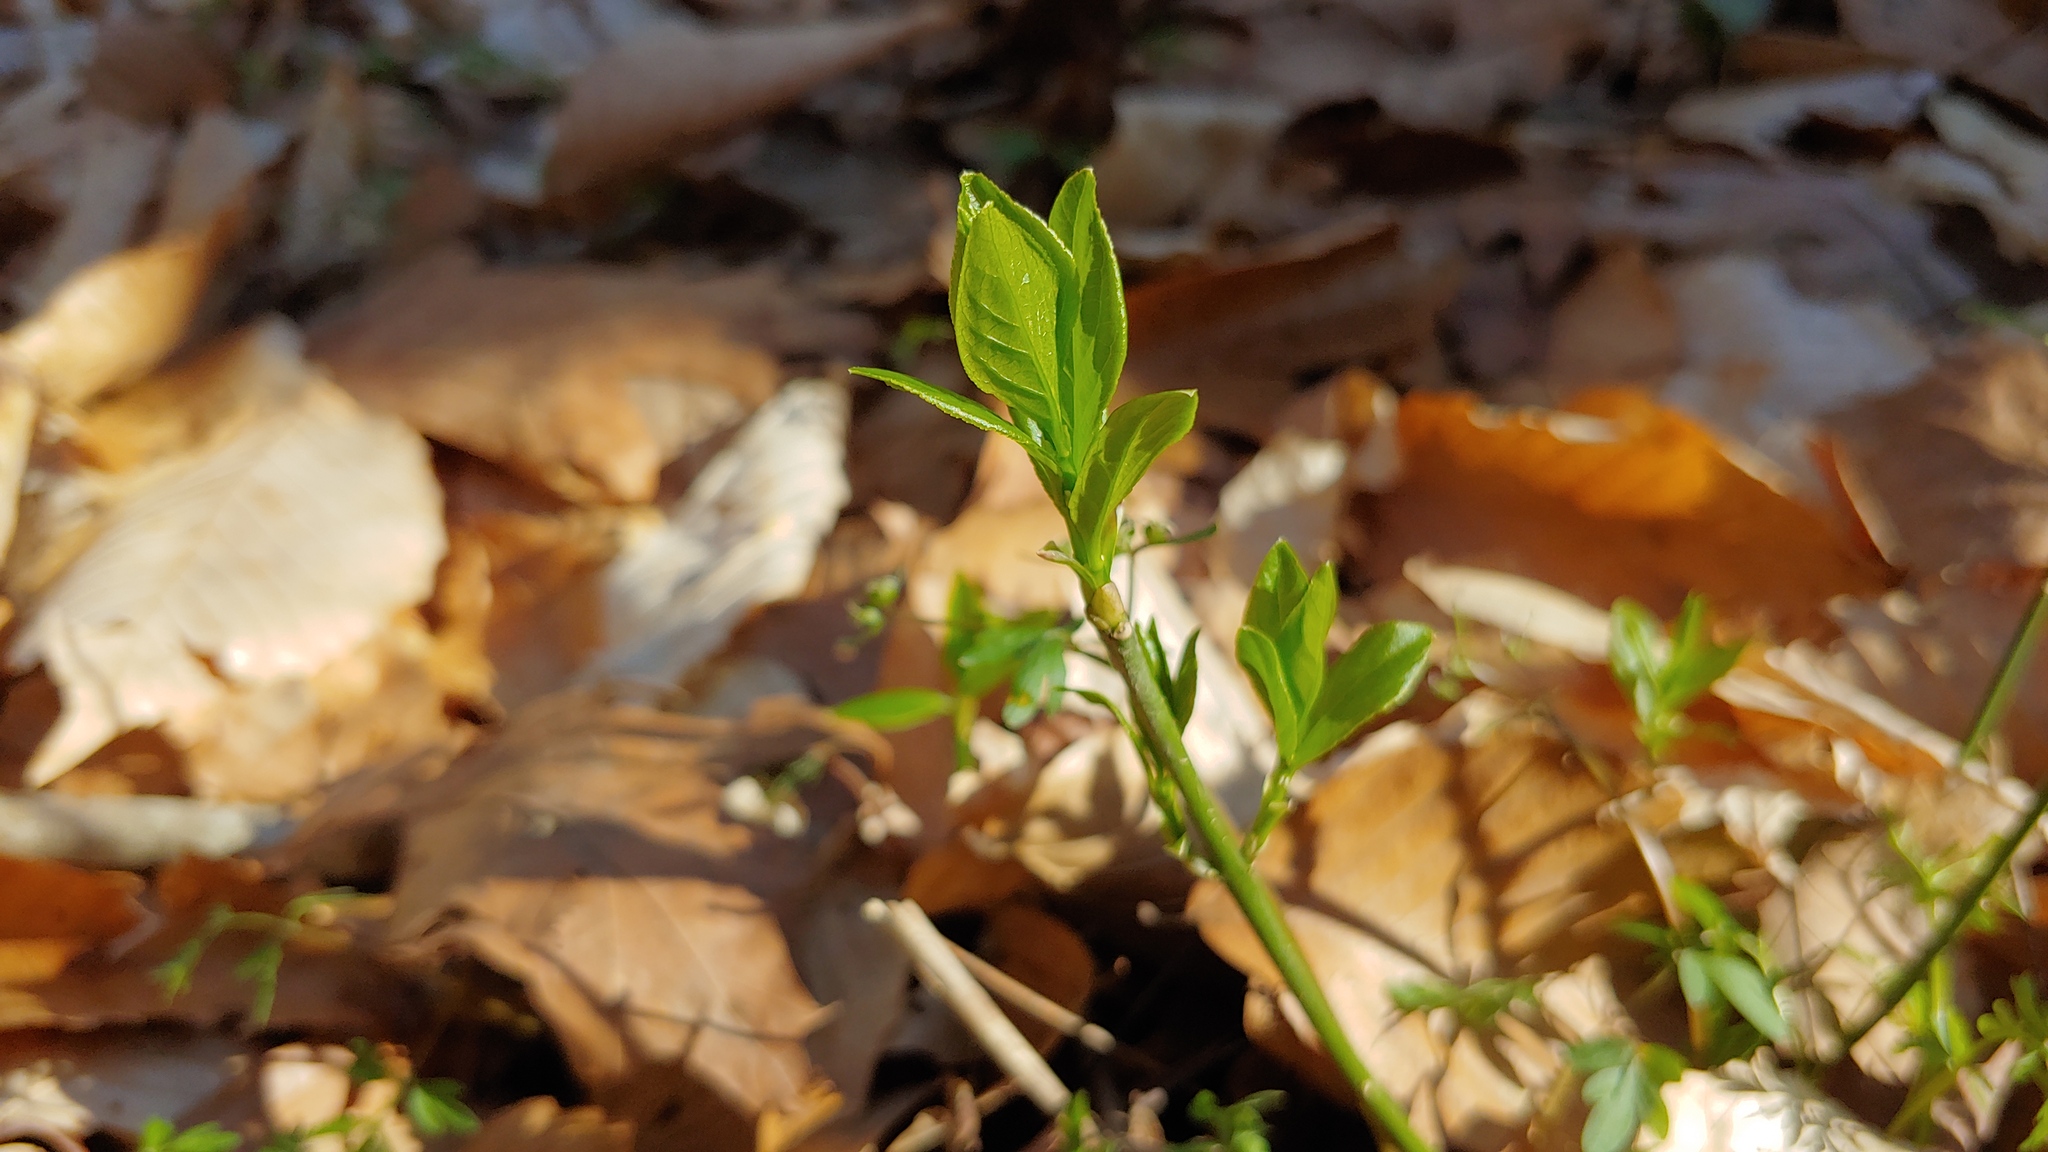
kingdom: Plantae
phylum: Tracheophyta
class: Magnoliopsida
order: Celastrales
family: Celastraceae
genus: Euonymus
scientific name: Euonymus obovatus
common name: Running strawberry-bush
